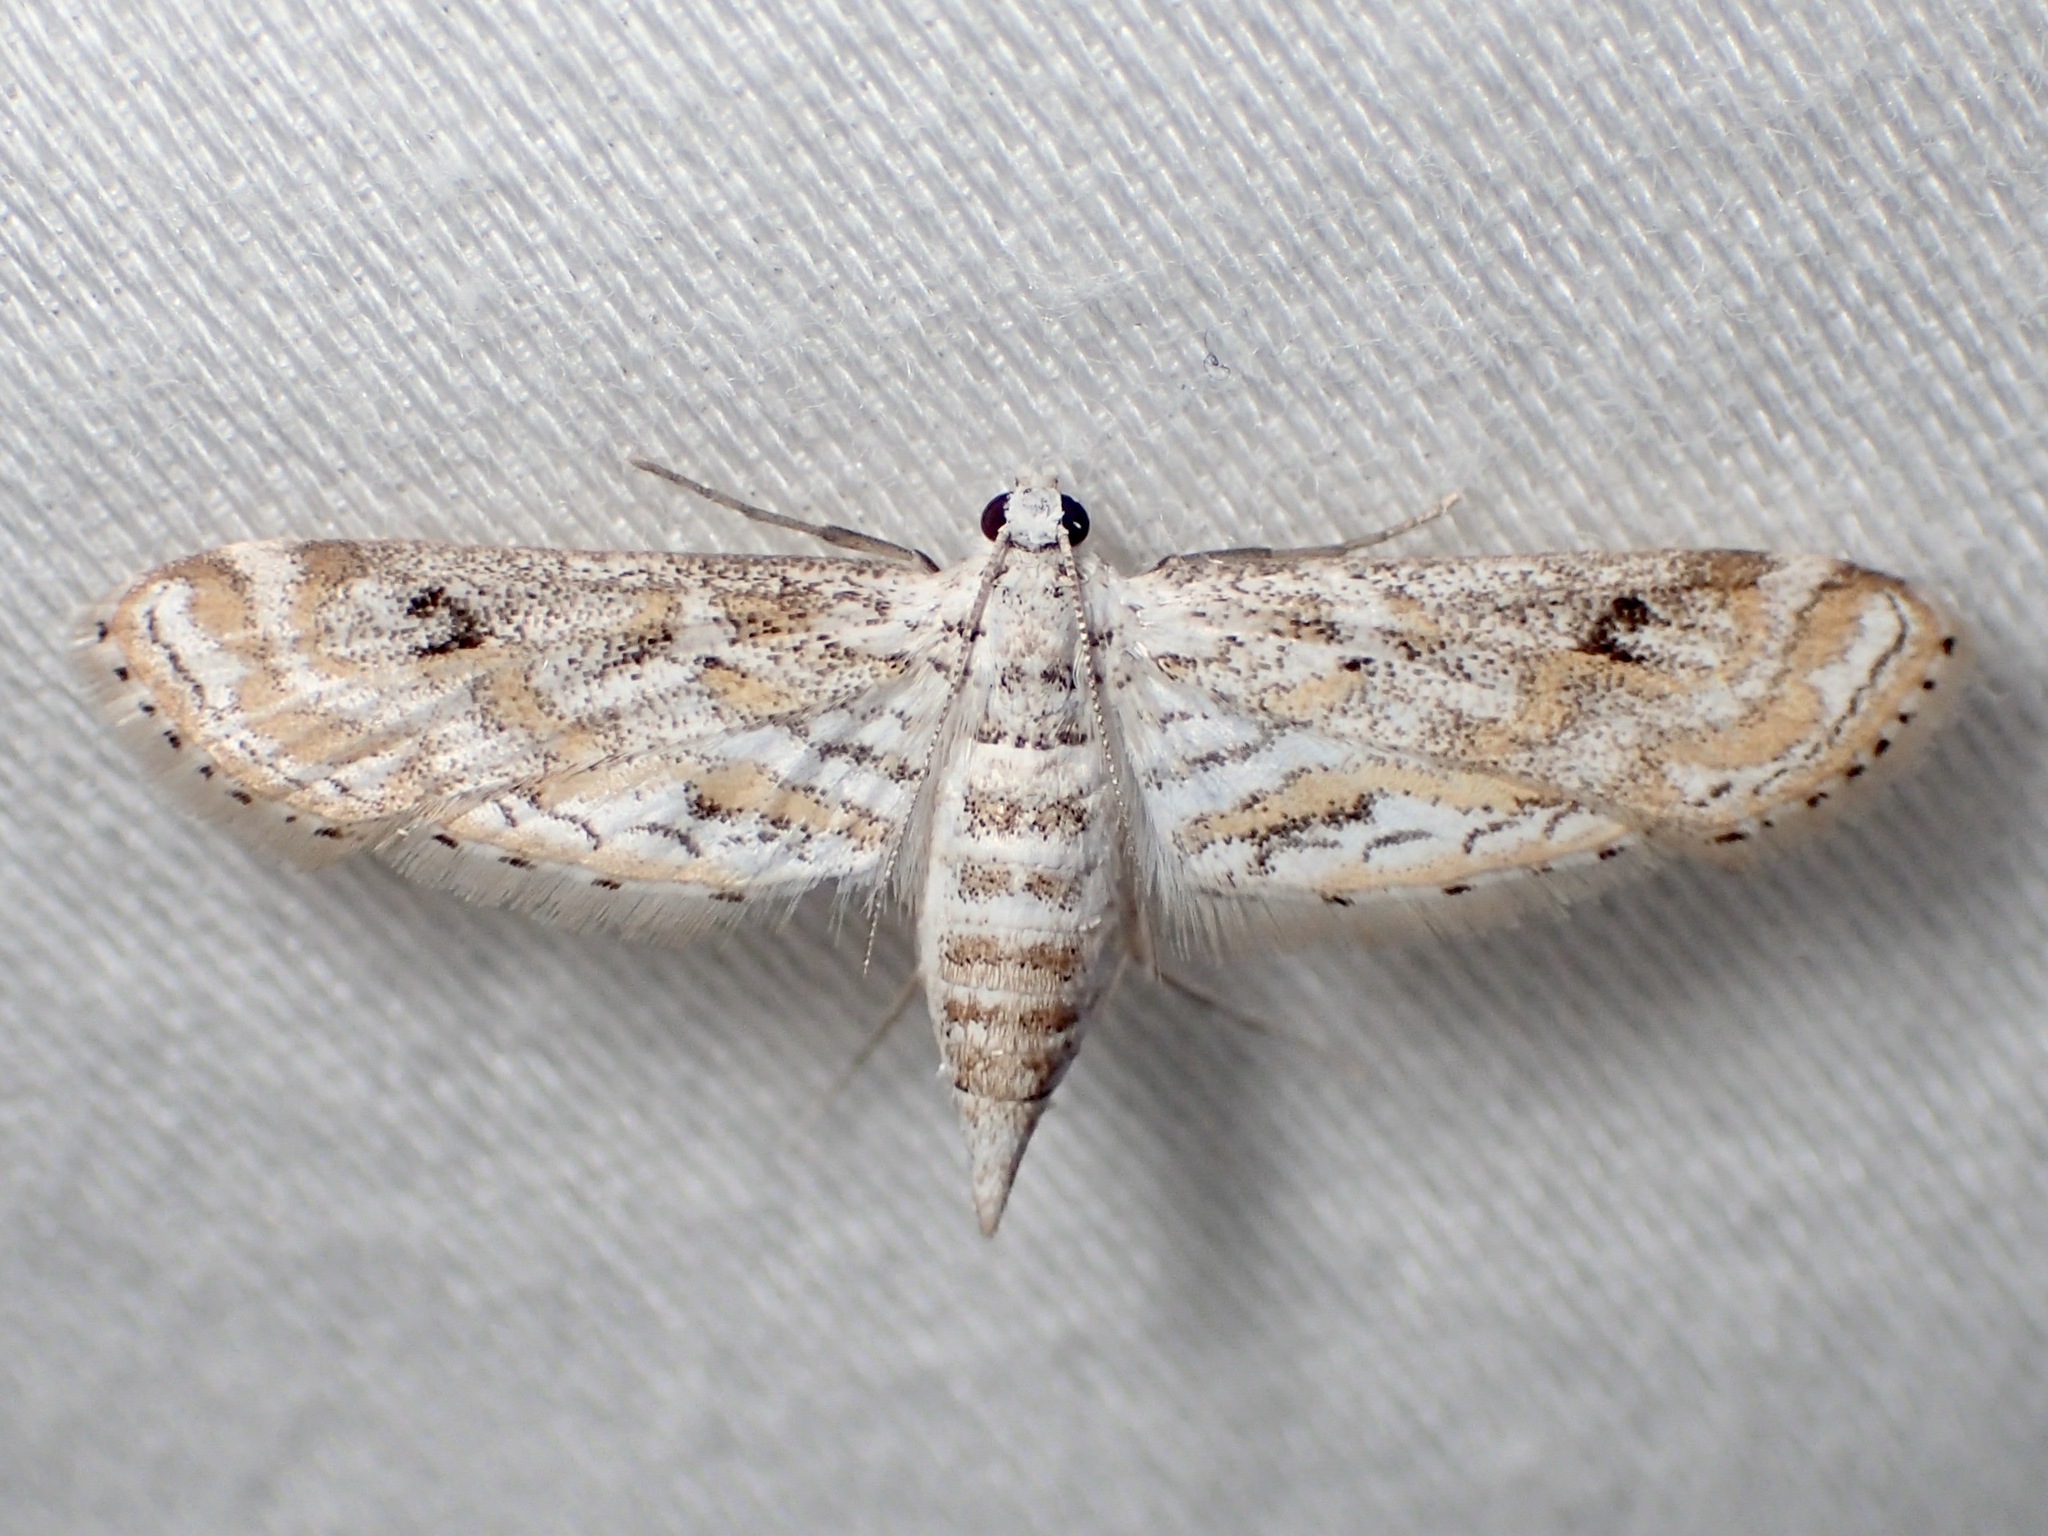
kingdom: Animalia
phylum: Arthropoda
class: Insecta
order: Lepidoptera
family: Crambidae
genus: Parapoynx
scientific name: Parapoynx diminutalis
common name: Hydrilla leafcutter
